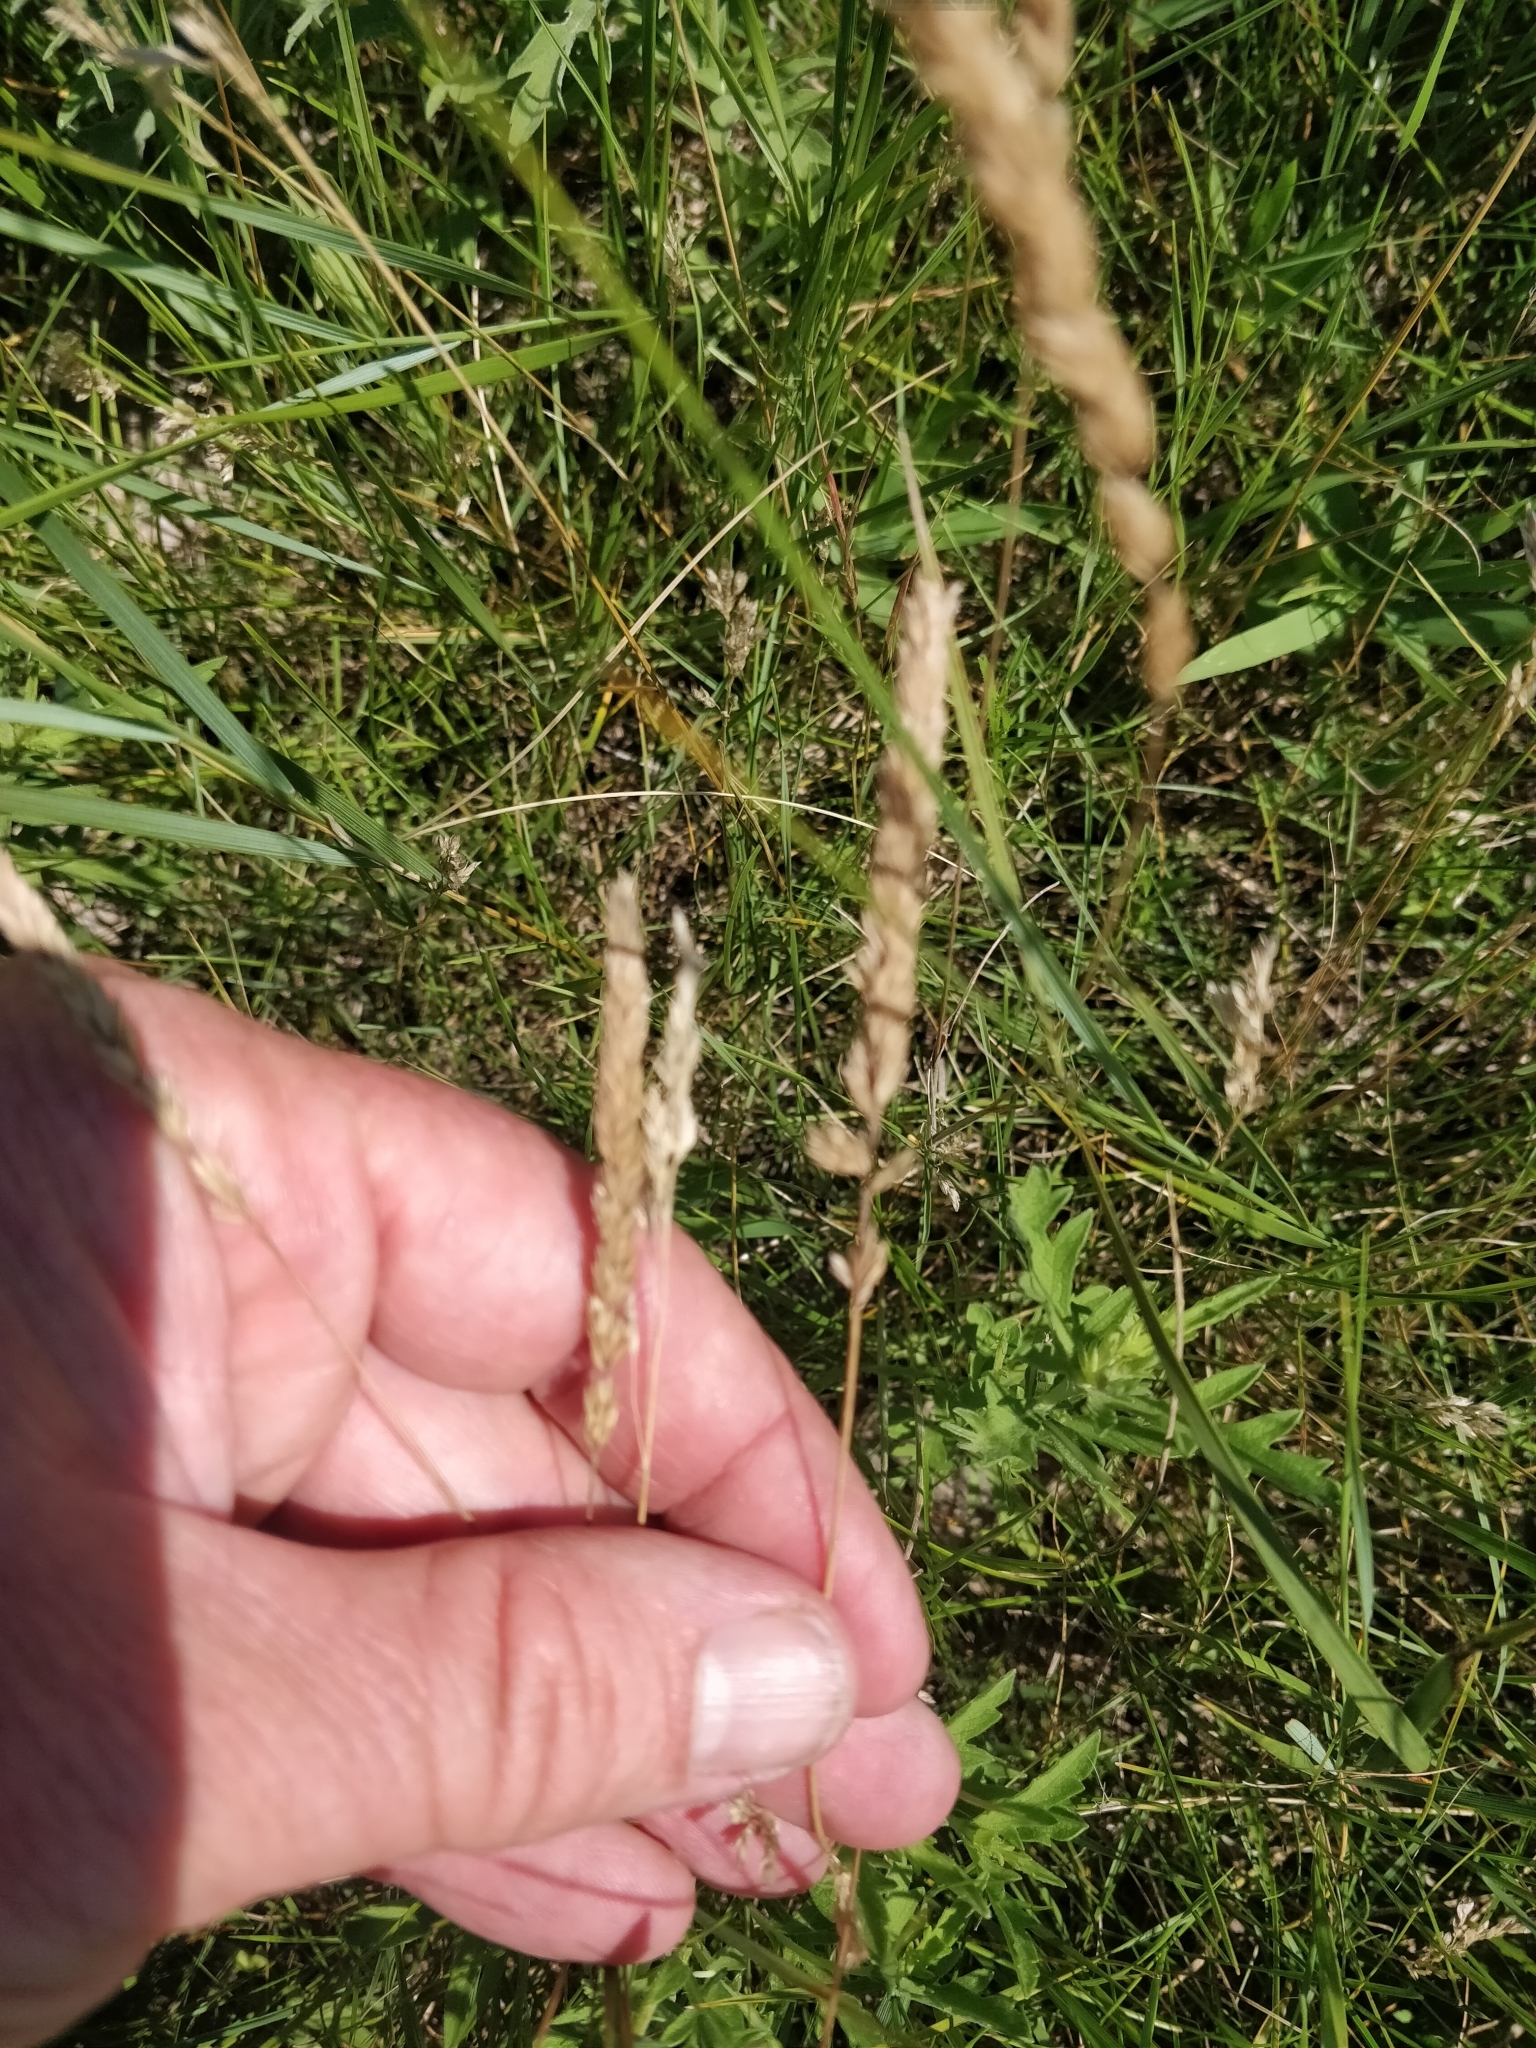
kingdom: Plantae
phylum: Tracheophyta
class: Liliopsida
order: Poales
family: Poaceae
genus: Koeleria
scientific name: Koeleria macrantha
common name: Crested hair-grass
